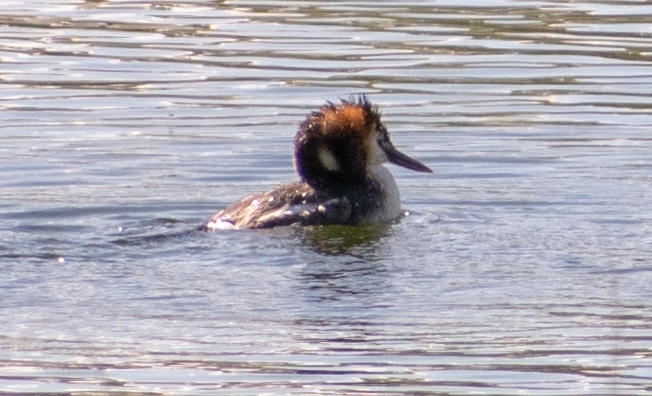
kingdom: Animalia
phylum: Chordata
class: Aves
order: Podicipediformes
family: Podicipedidae
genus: Podiceps
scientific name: Podiceps cristatus
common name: Great crested grebe
